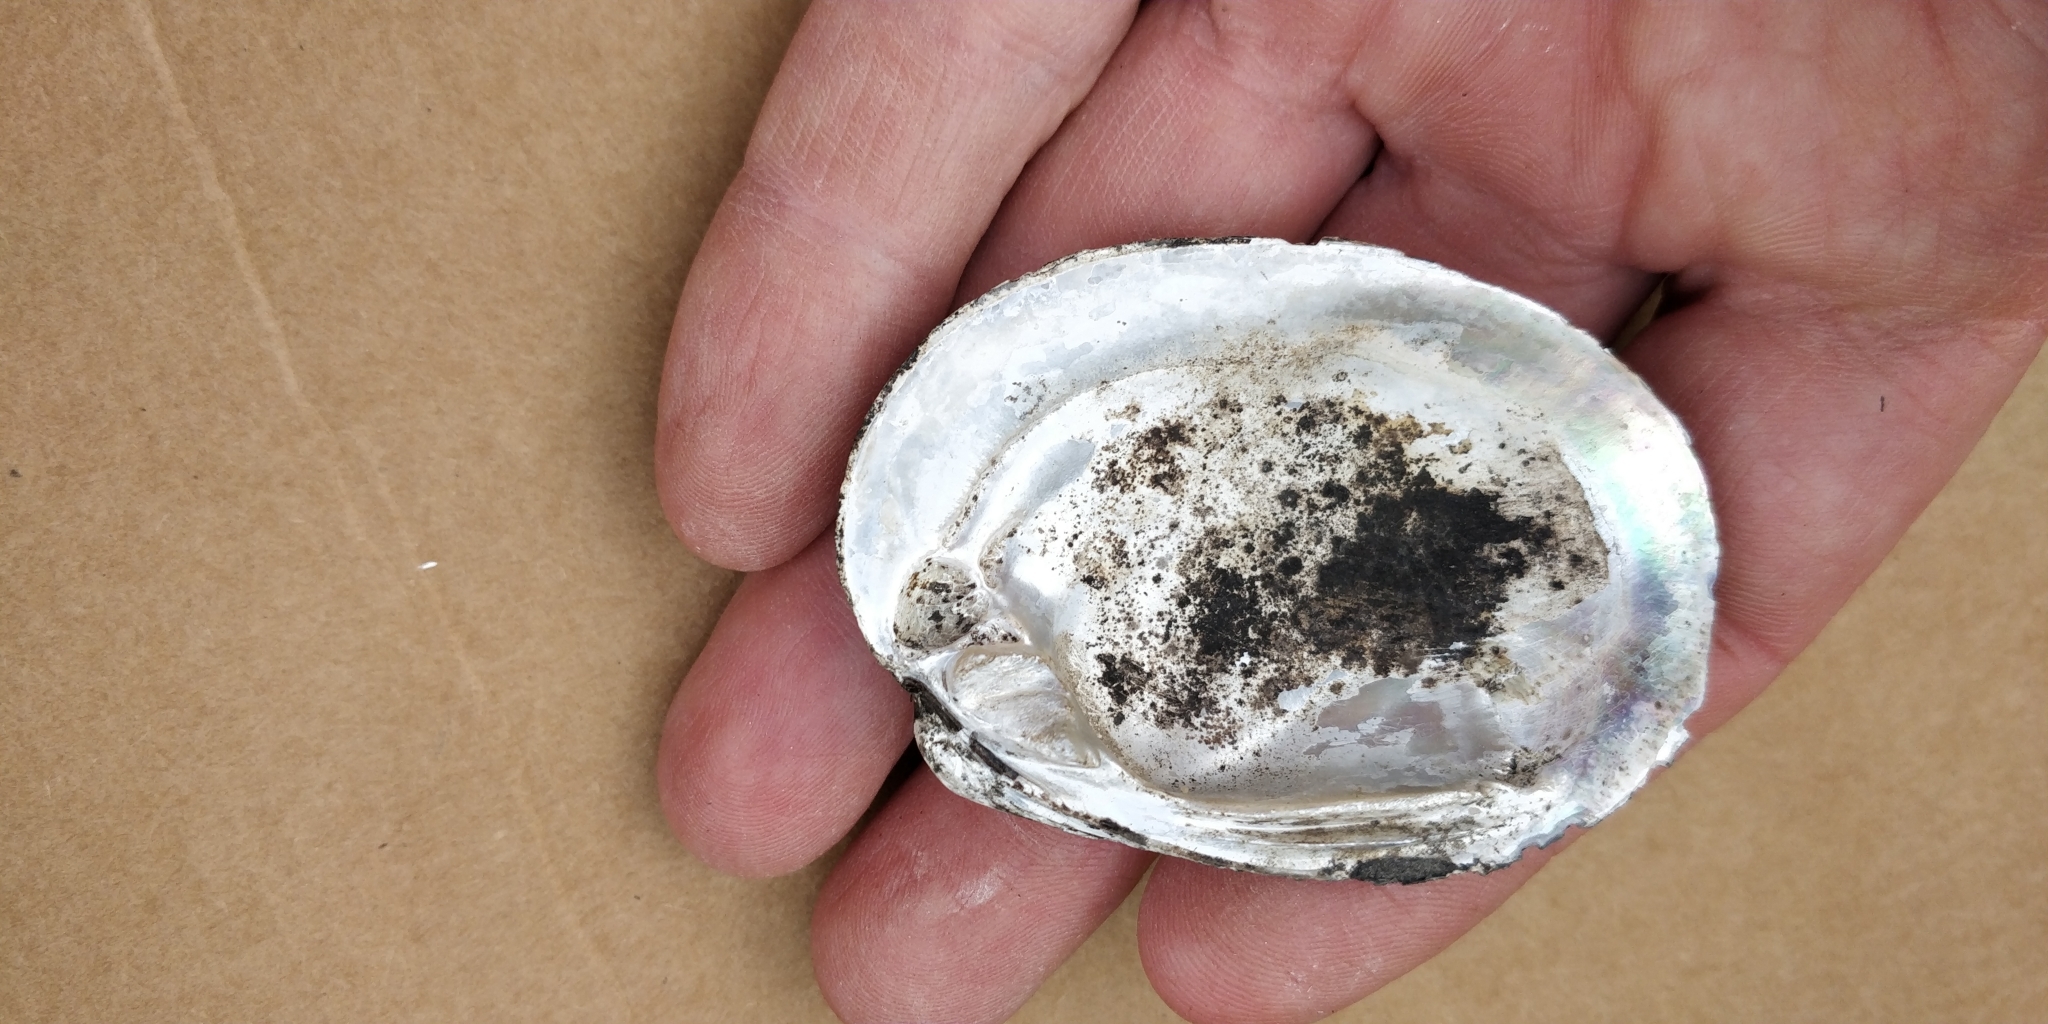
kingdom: Animalia
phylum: Mollusca
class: Bivalvia
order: Unionida
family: Unionidae
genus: Obovaria
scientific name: Obovaria olivaria
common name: Hickorynut
